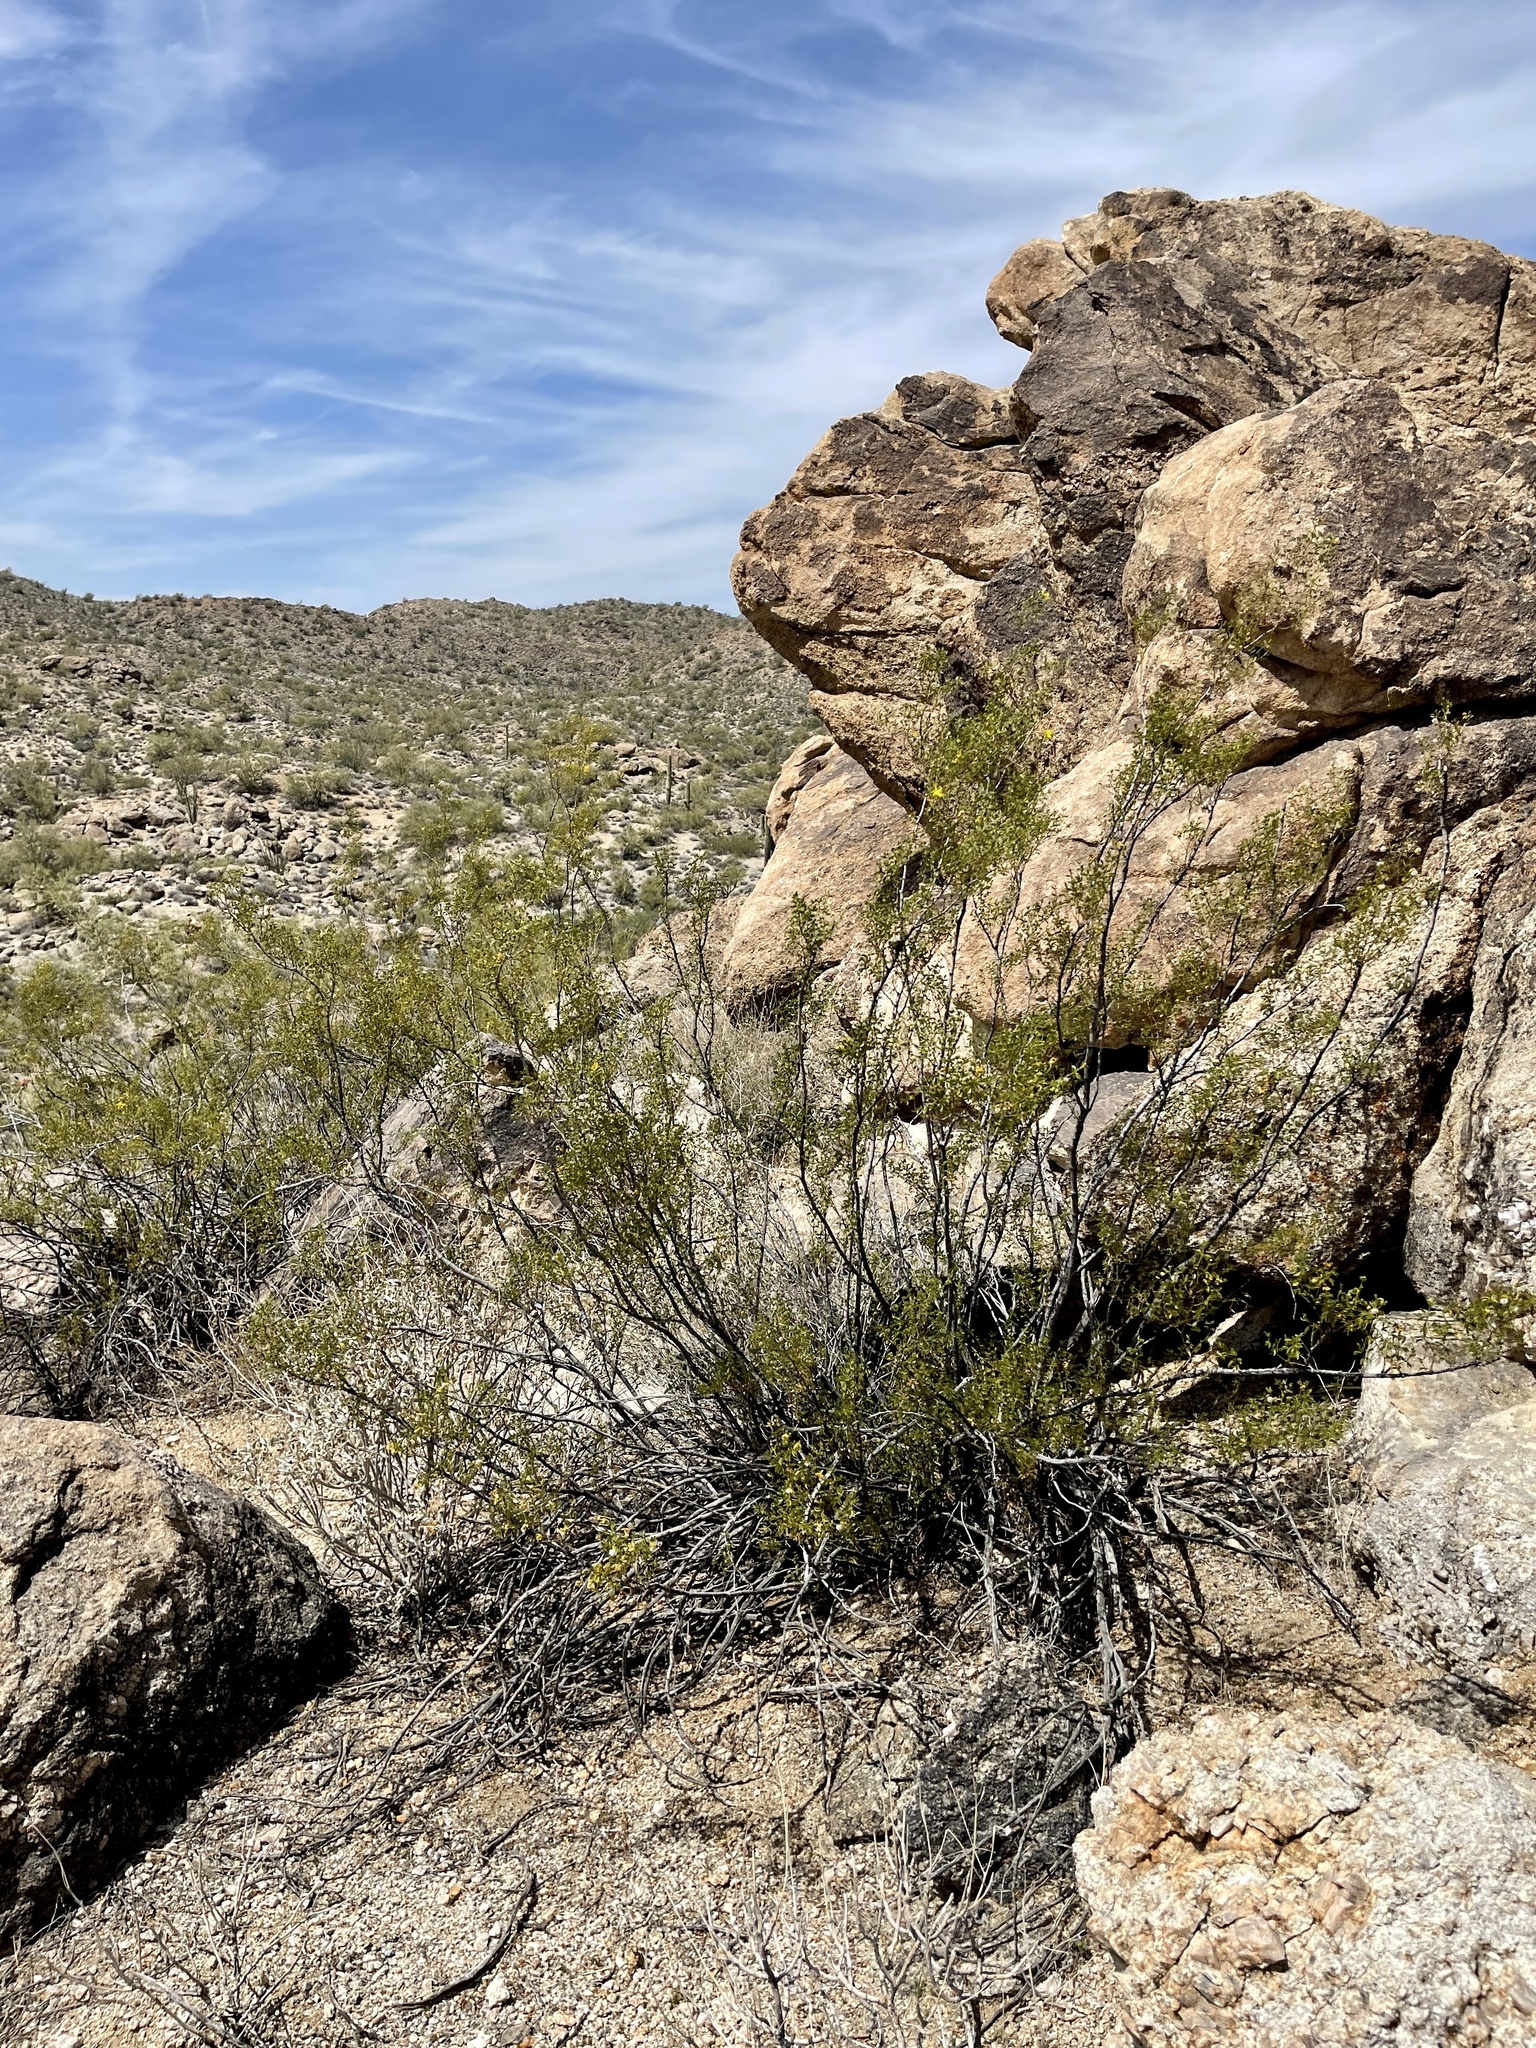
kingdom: Plantae
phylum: Tracheophyta
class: Magnoliopsida
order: Zygophyllales
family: Zygophyllaceae
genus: Larrea
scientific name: Larrea tridentata
